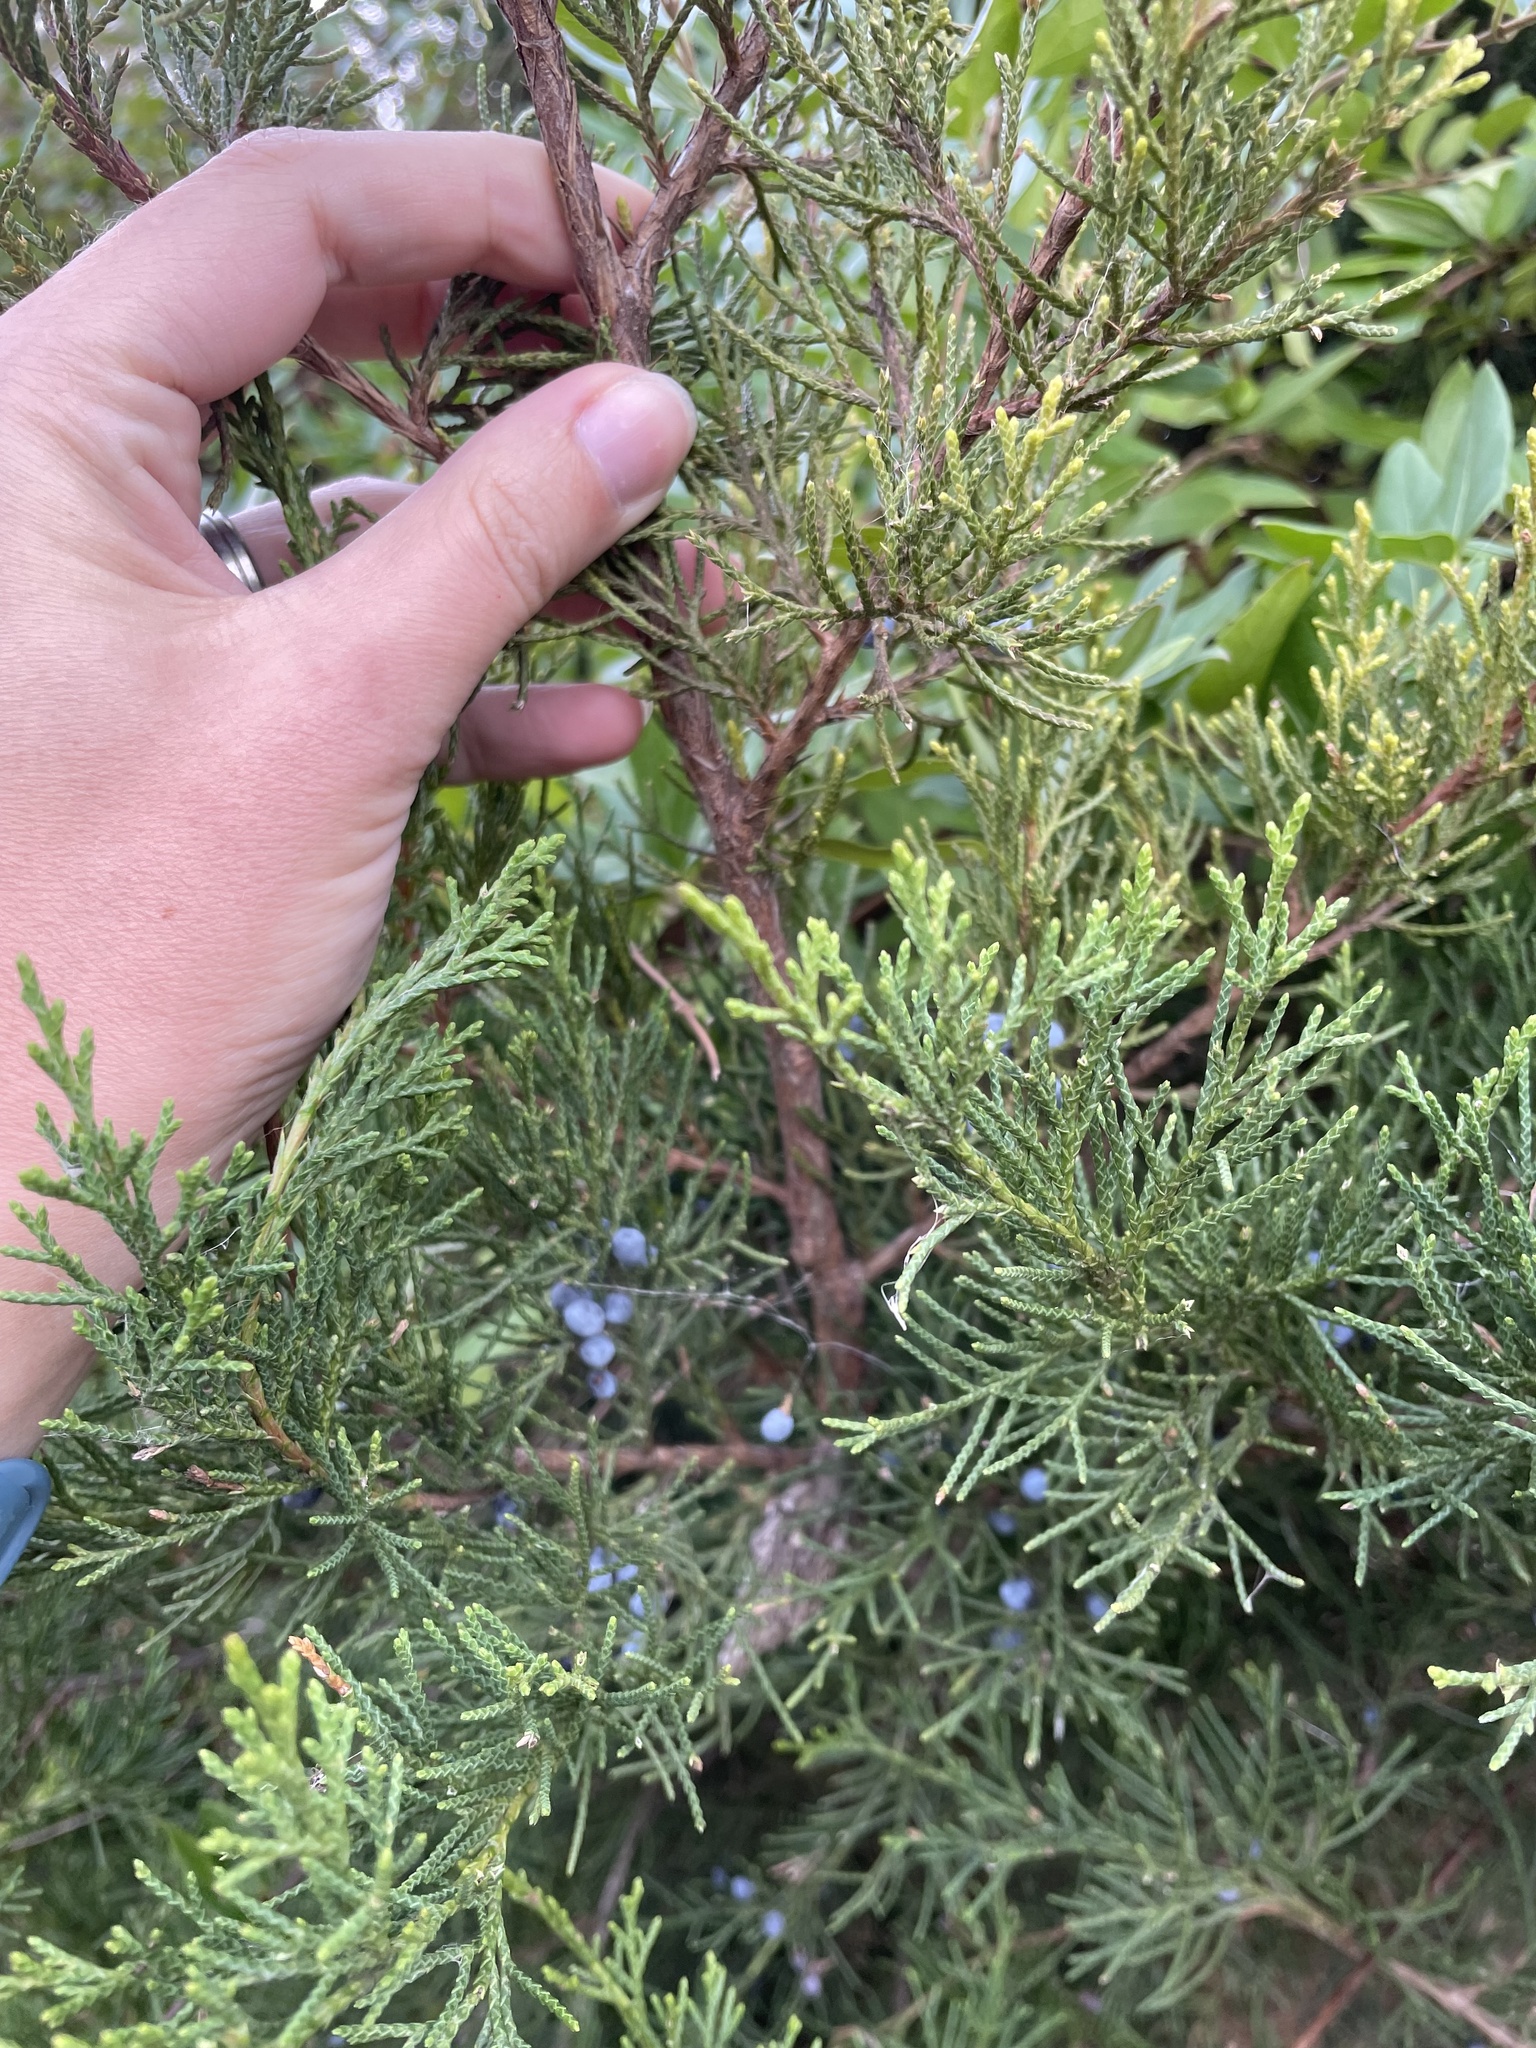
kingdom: Plantae
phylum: Tracheophyta
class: Pinopsida
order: Pinales
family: Cupressaceae
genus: Juniperus
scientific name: Juniperus virginiana
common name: Red juniper
